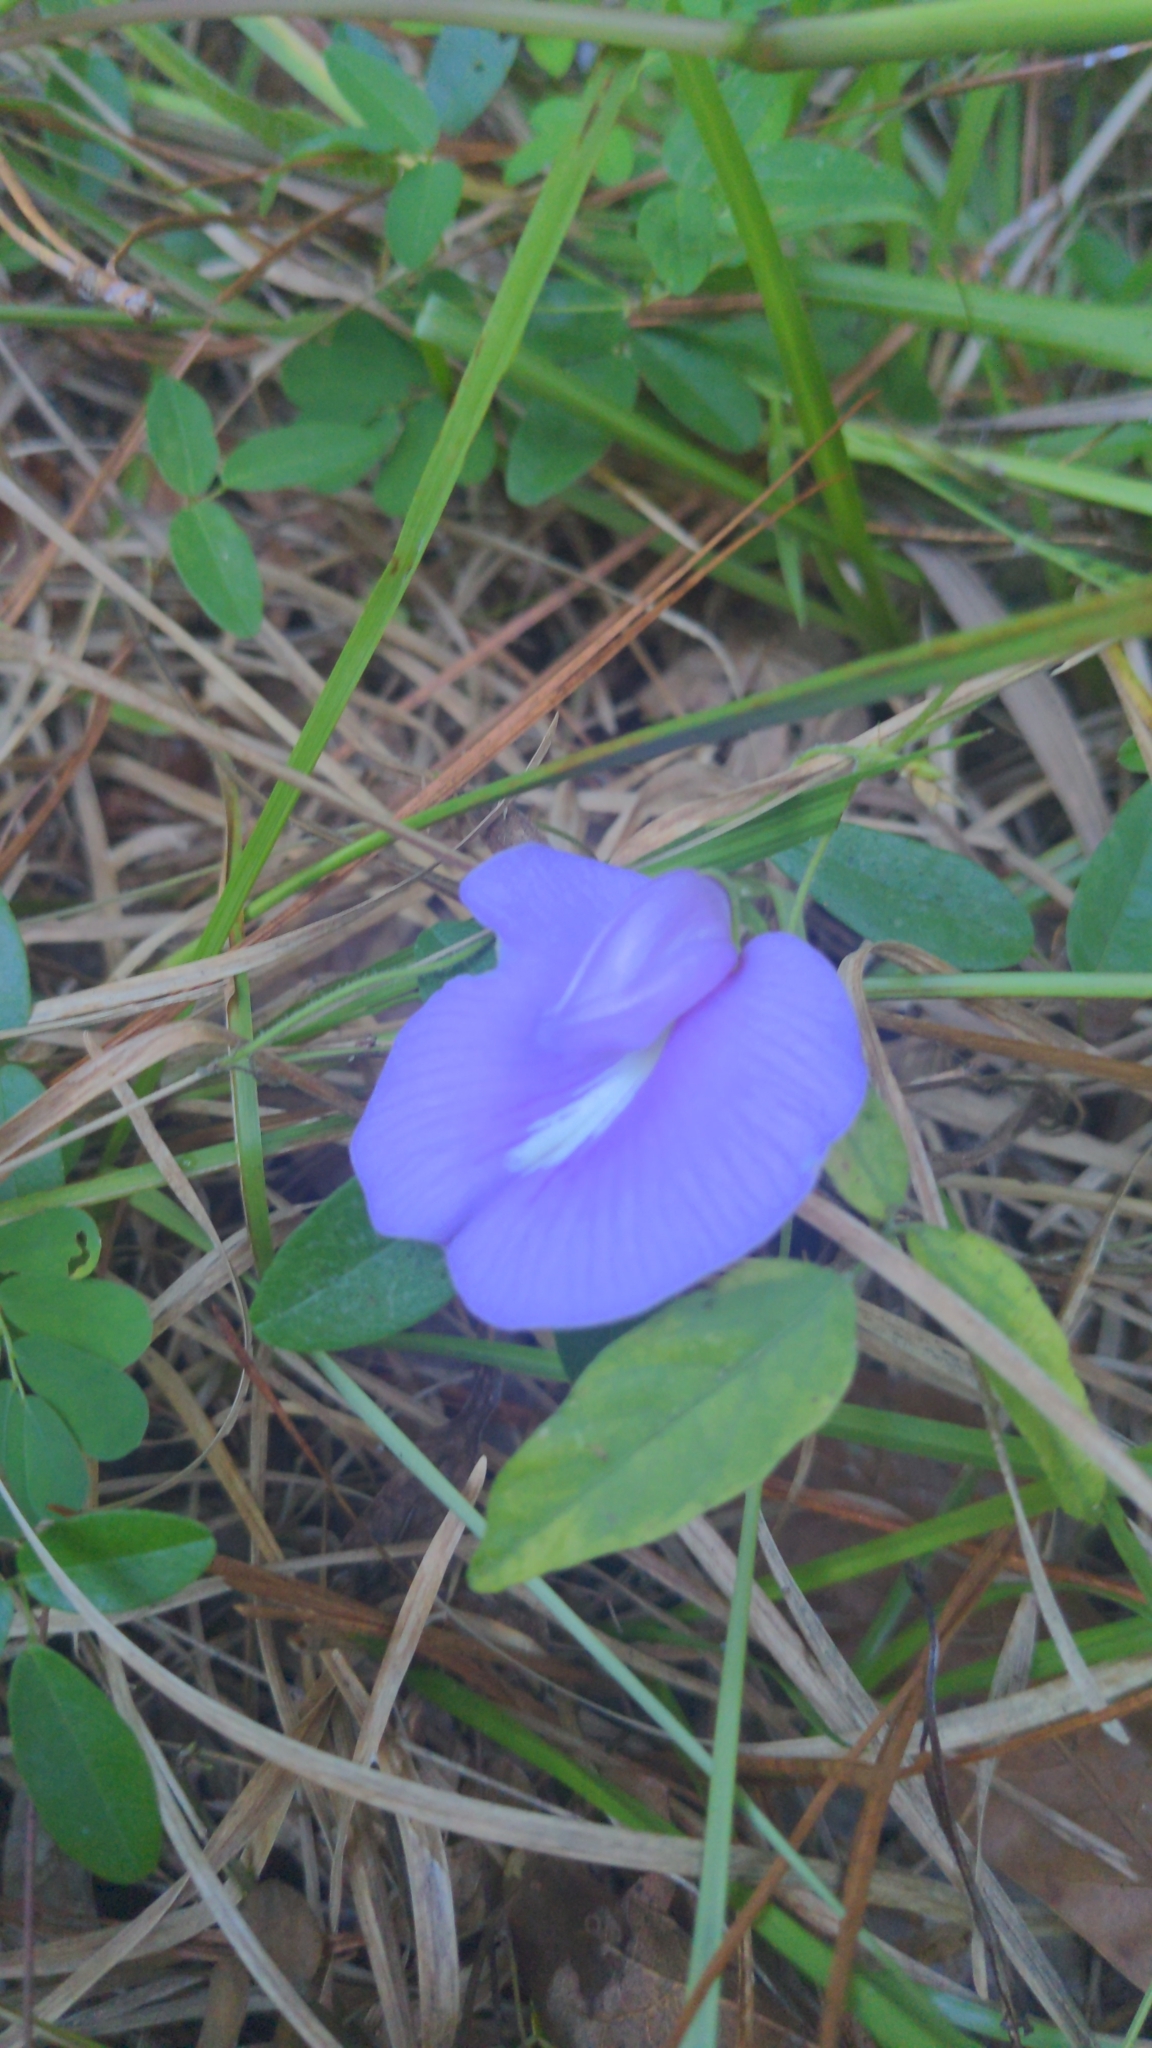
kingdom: Plantae
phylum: Tracheophyta
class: Magnoliopsida
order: Fabales
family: Fabaceae
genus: Centrosema
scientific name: Centrosema virginianum
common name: Butterfly-pea
